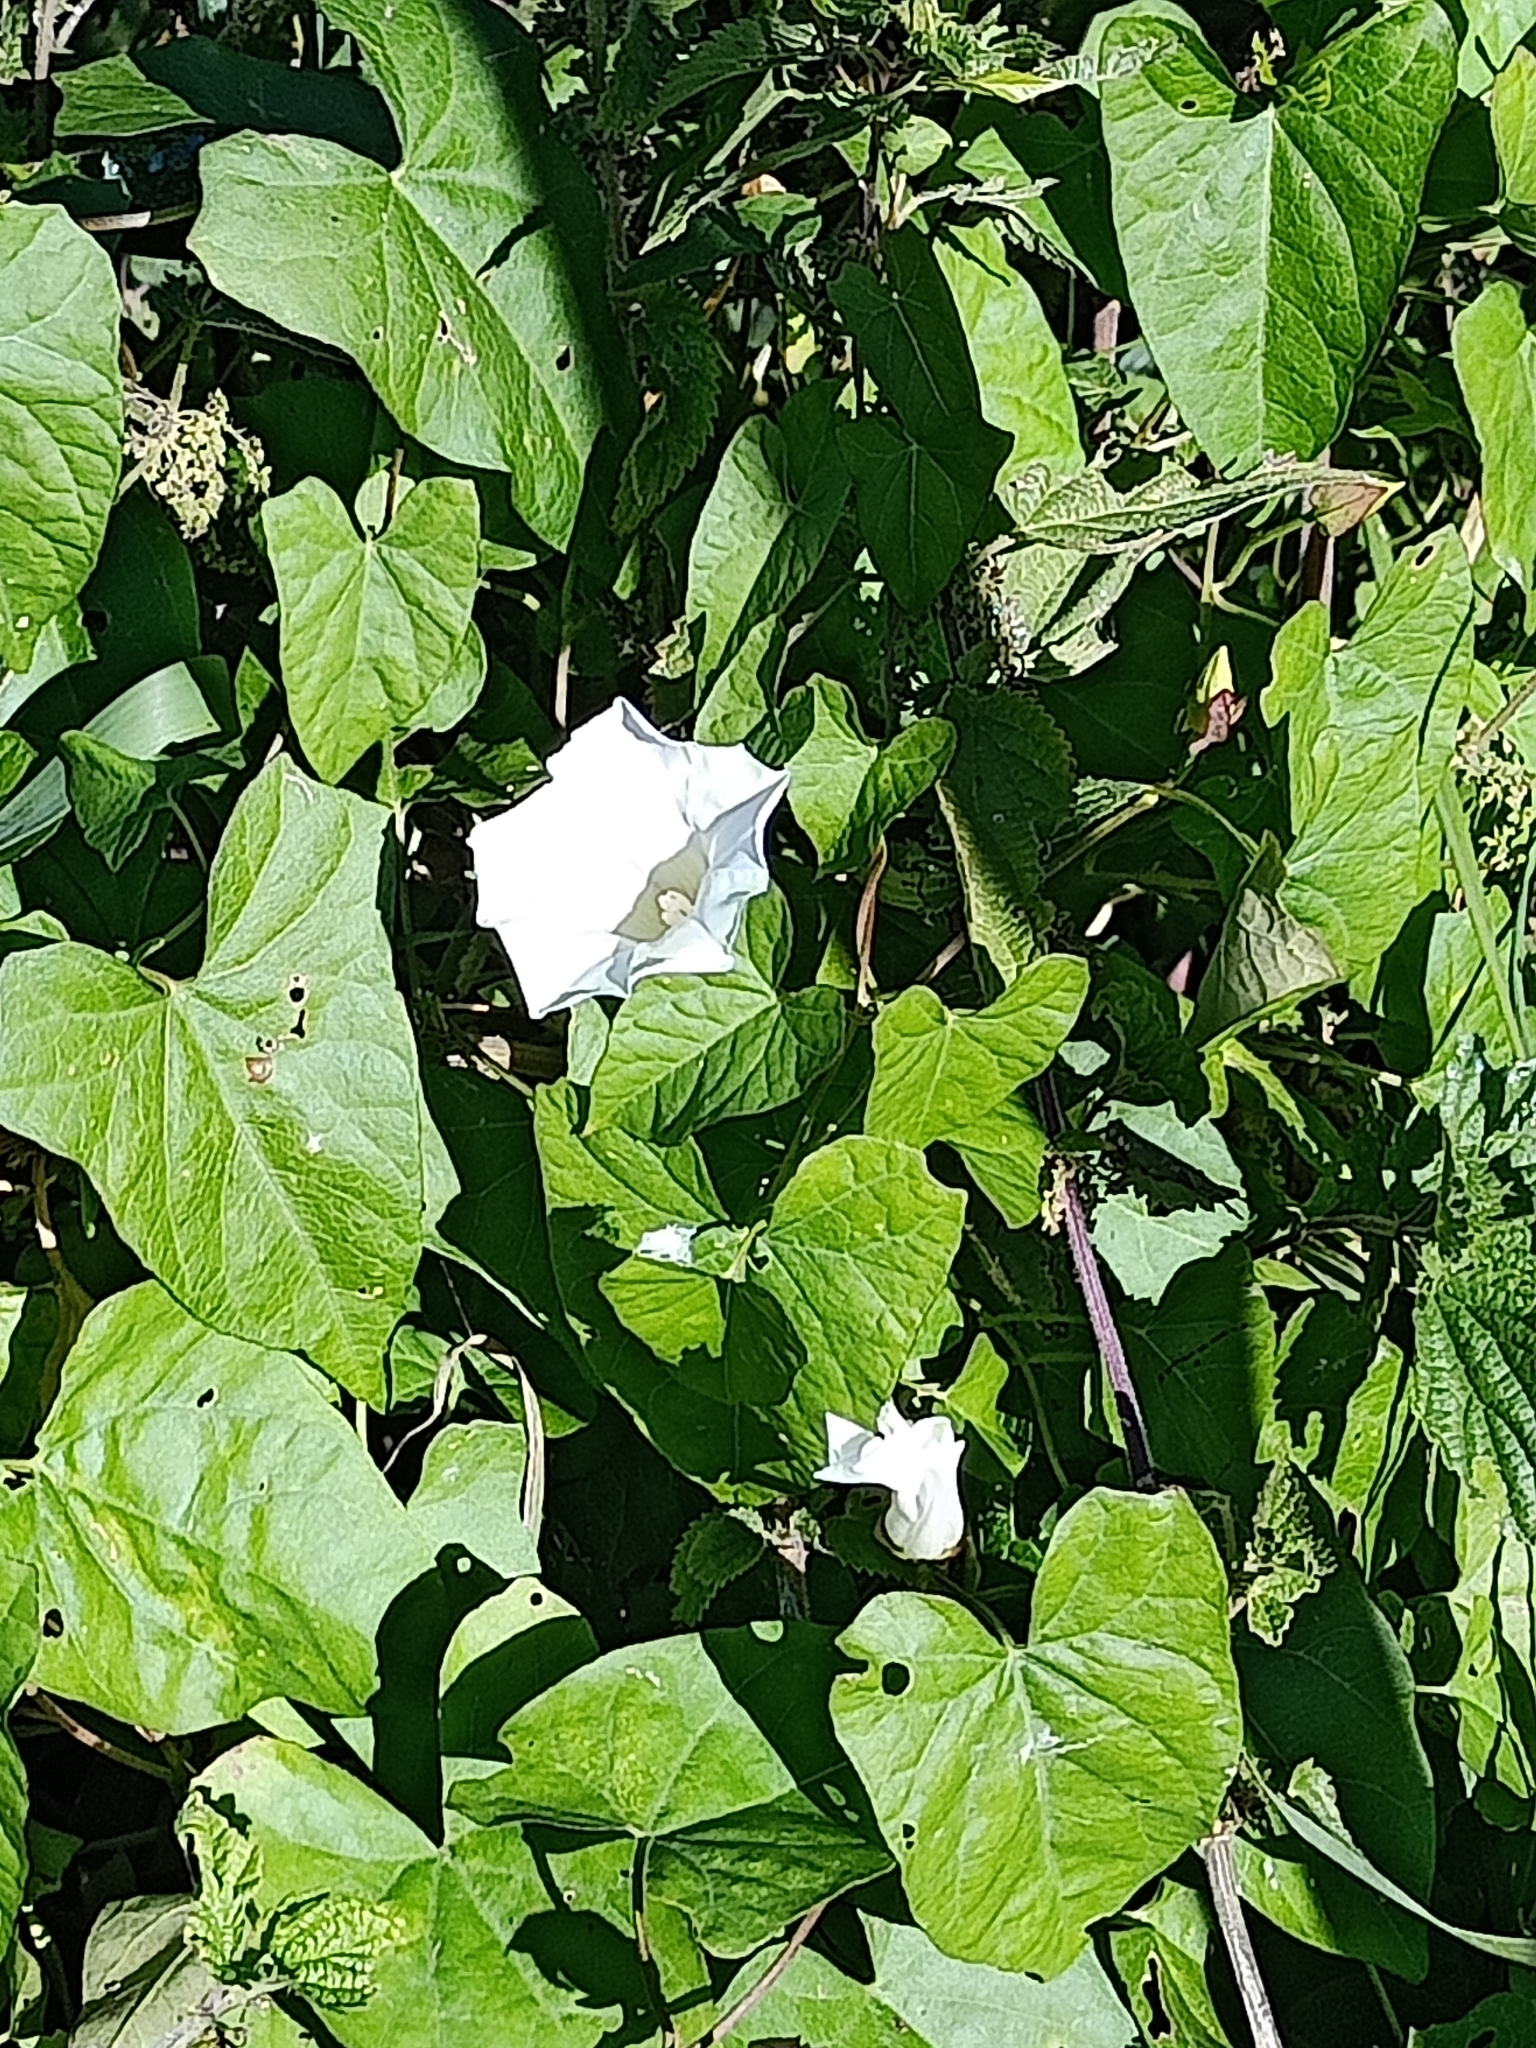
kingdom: Plantae
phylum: Tracheophyta
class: Magnoliopsida
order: Solanales
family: Convolvulaceae
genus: Calystegia
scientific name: Calystegia sepium
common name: Hedge bindweed
